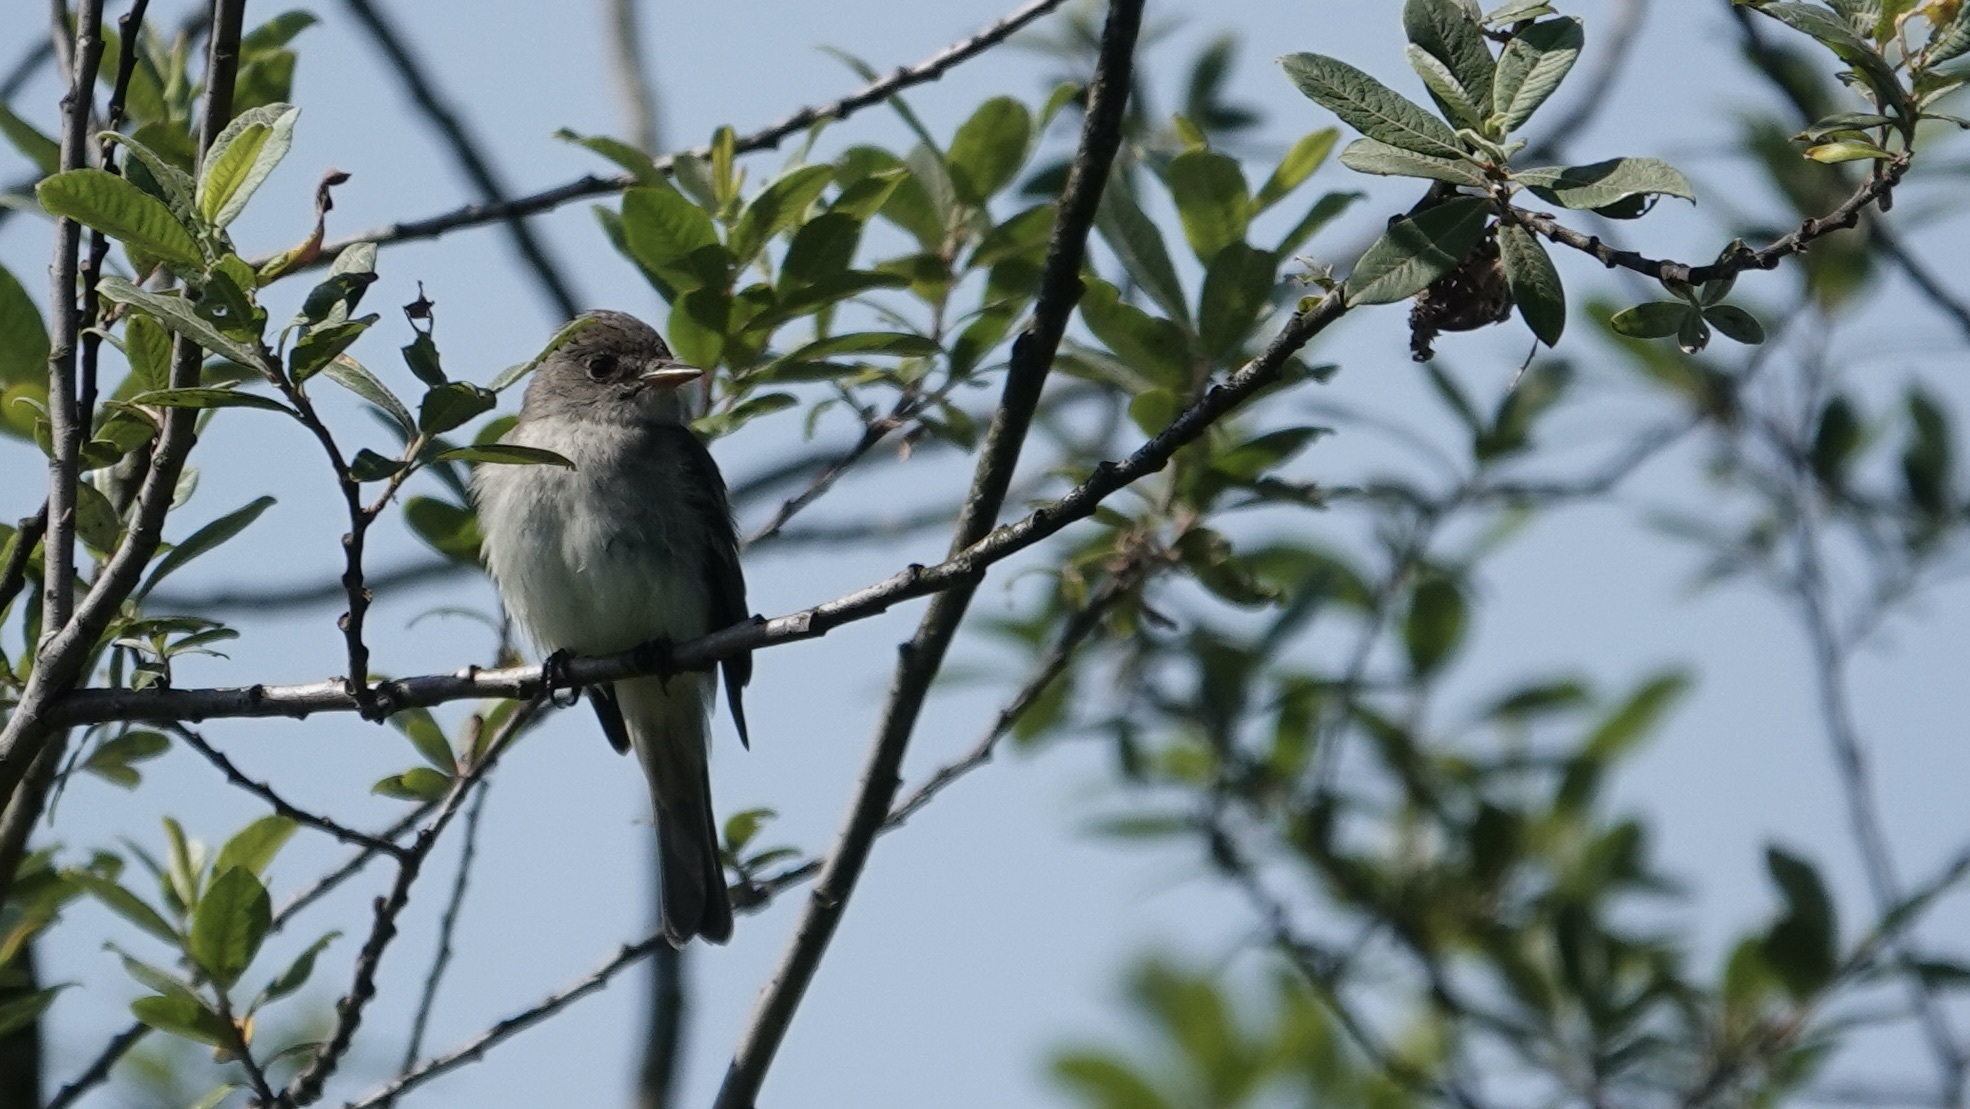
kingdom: Animalia
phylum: Chordata
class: Aves
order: Passeriformes
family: Tyrannidae
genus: Empidonax
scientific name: Empidonax traillii
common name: Willow flycatcher
